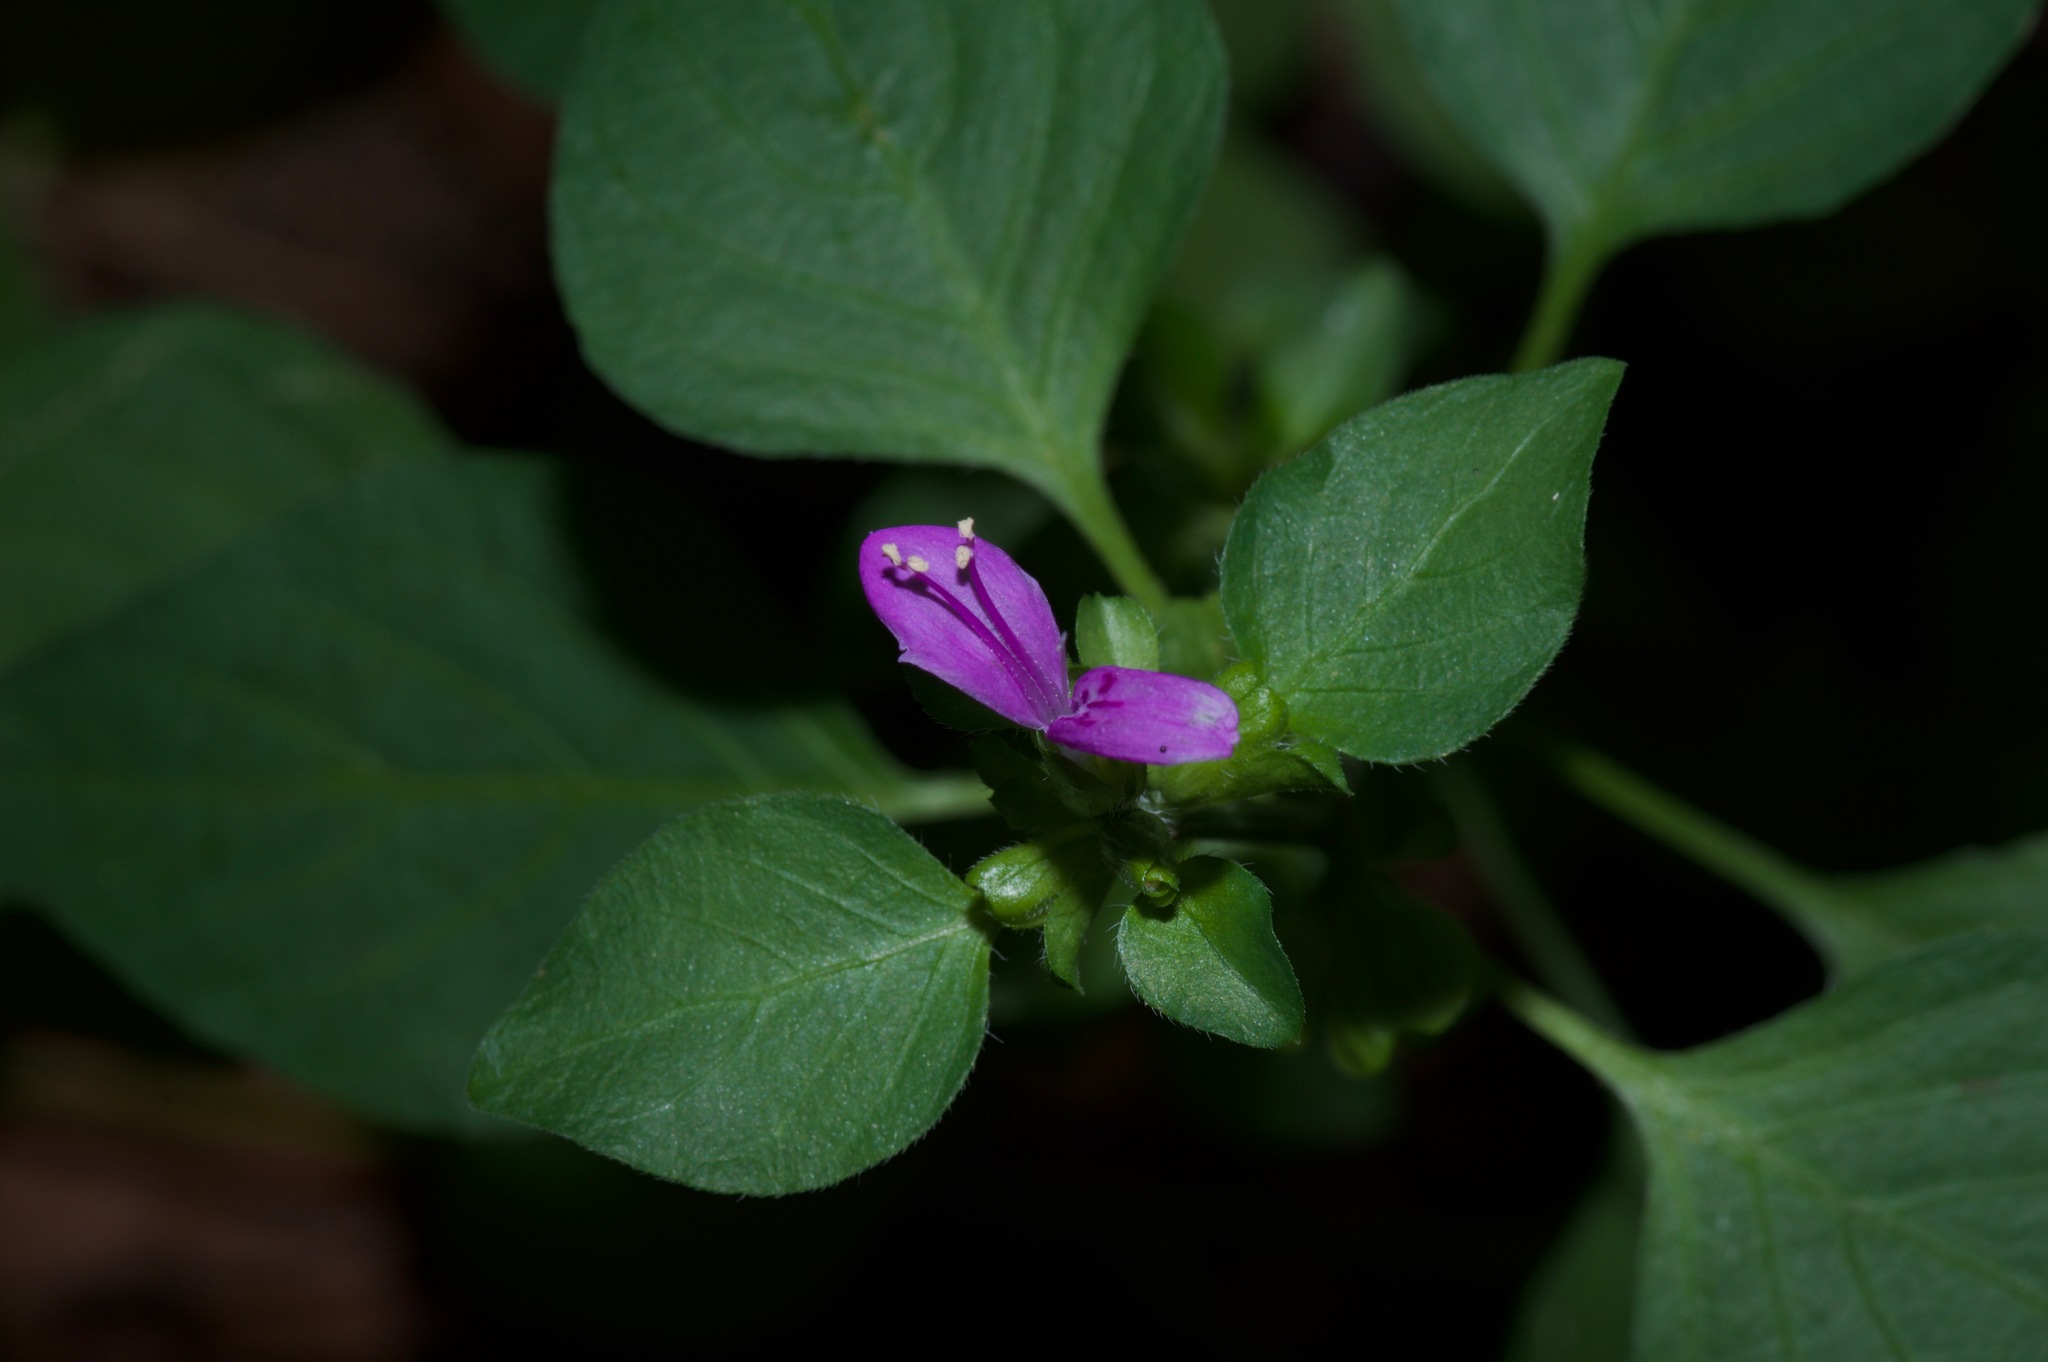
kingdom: Plantae
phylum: Tracheophyta
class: Magnoliopsida
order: Lamiales
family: Acanthaceae
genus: Dicliptera
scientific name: Dicliptera brachiata
